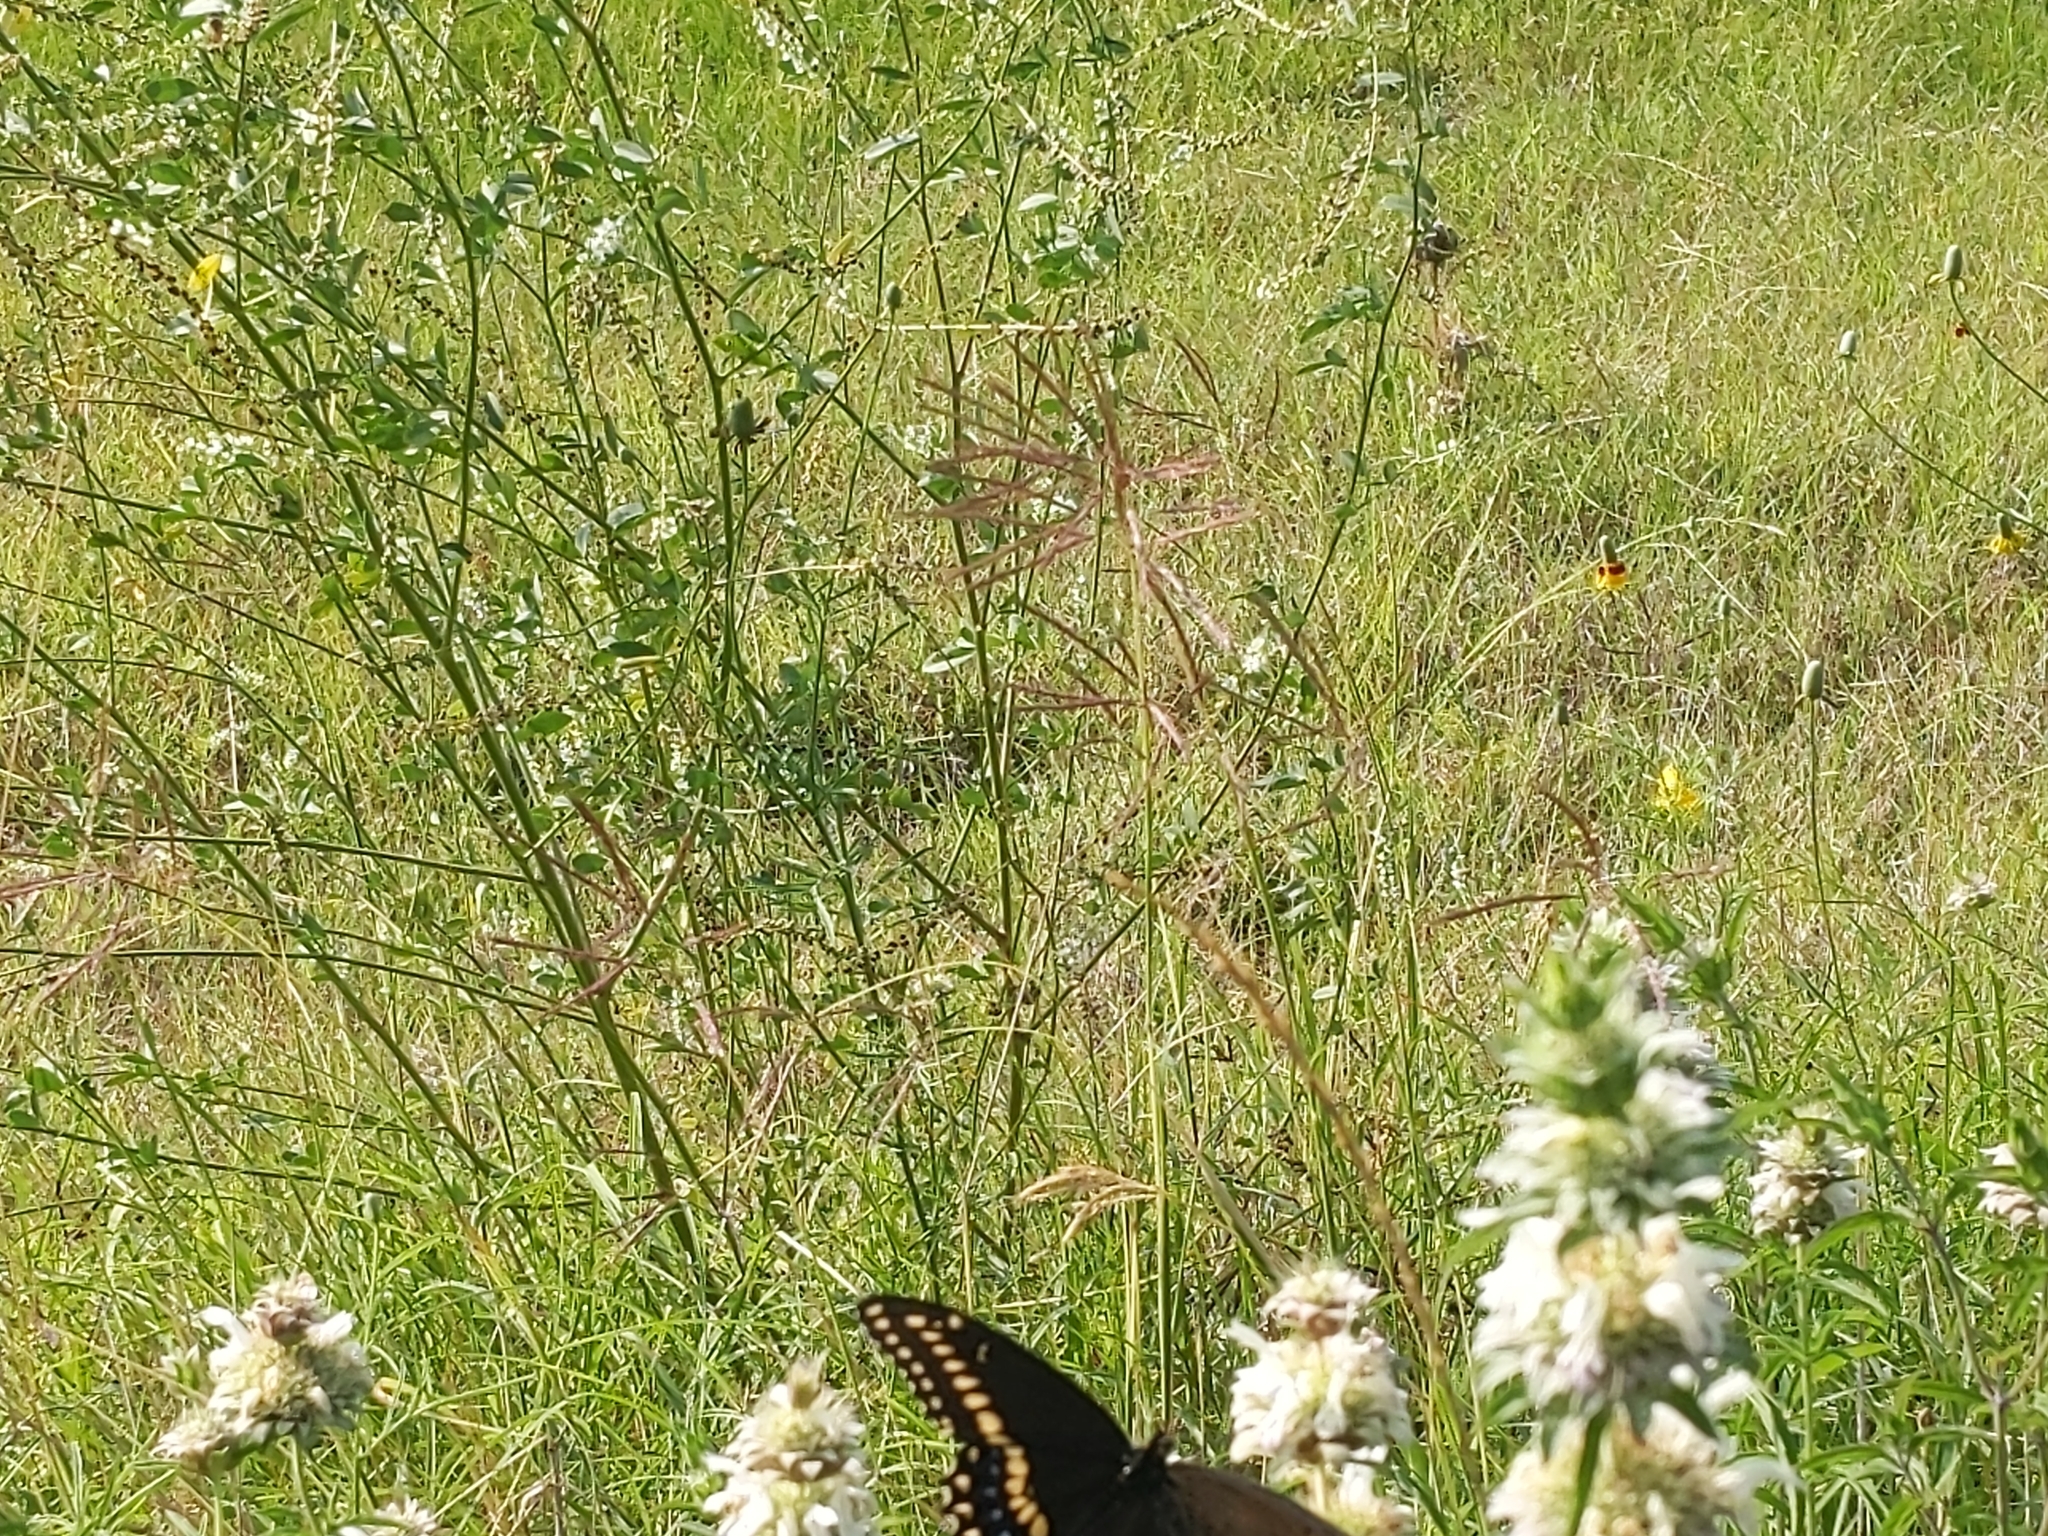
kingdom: Animalia
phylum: Arthropoda
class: Insecta
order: Lepidoptera
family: Papilionidae
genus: Papilio
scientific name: Papilio polyxenes
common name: Black swallowtail
